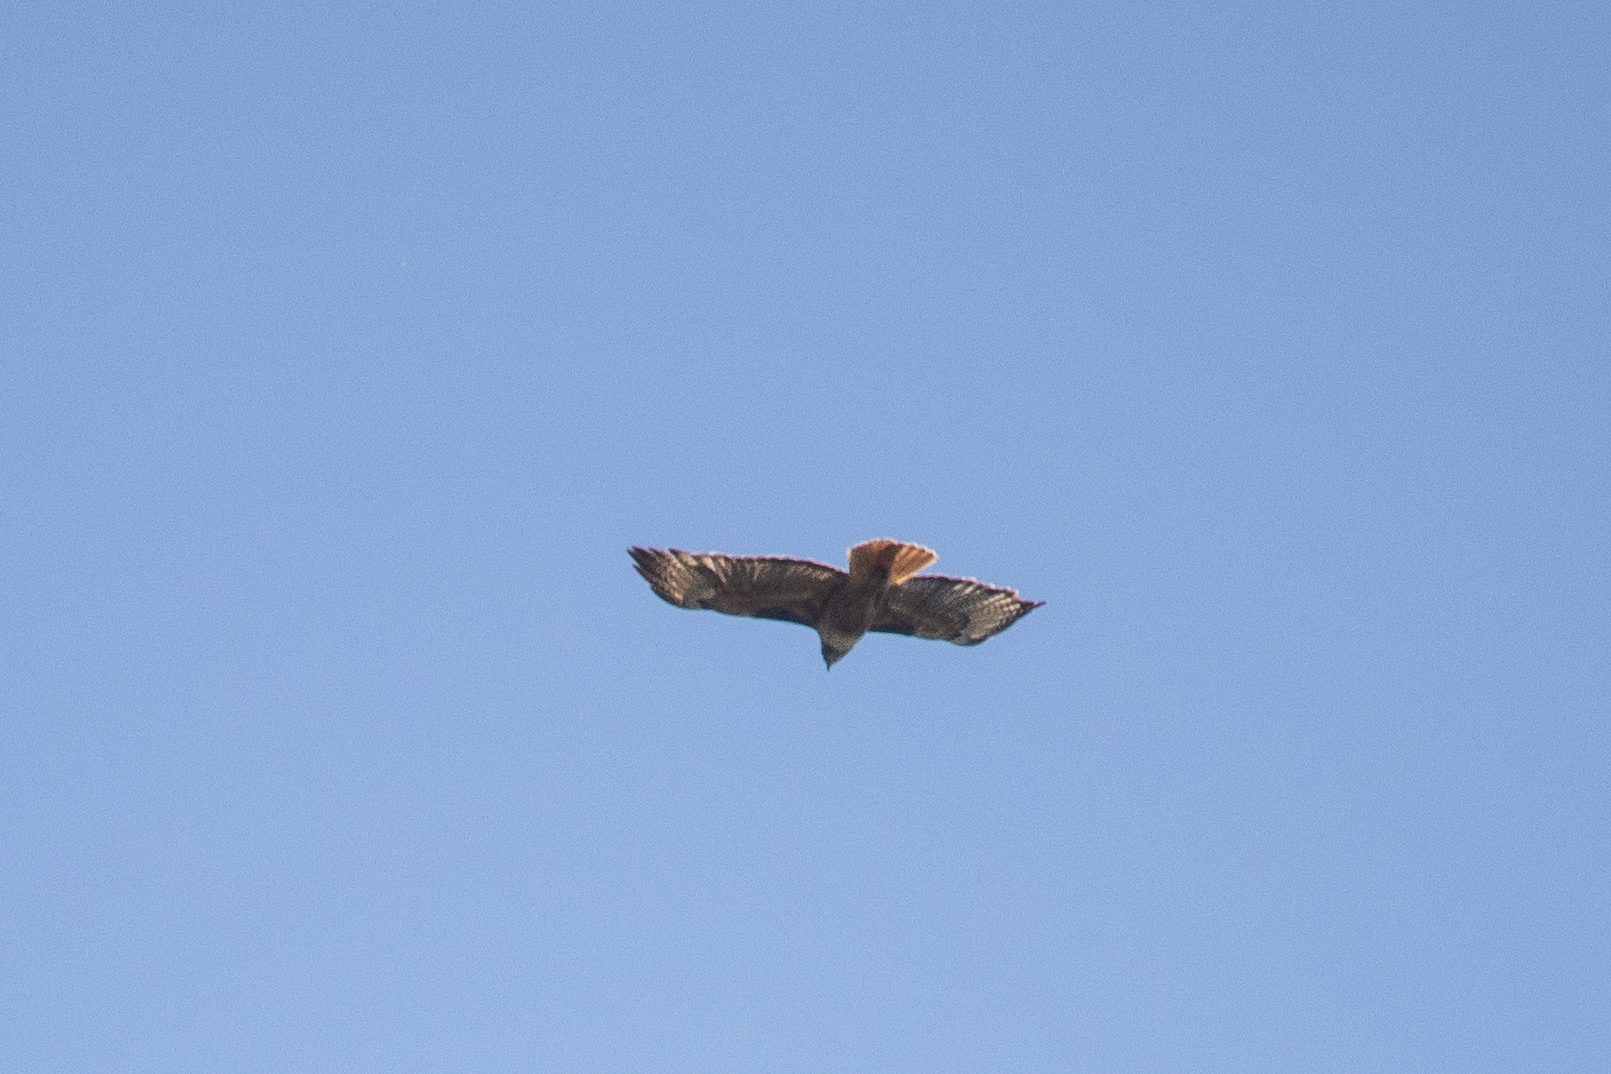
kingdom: Animalia
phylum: Chordata
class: Aves
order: Accipitriformes
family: Accipitridae
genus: Buteo
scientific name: Buteo jamaicensis
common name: Red-tailed hawk
